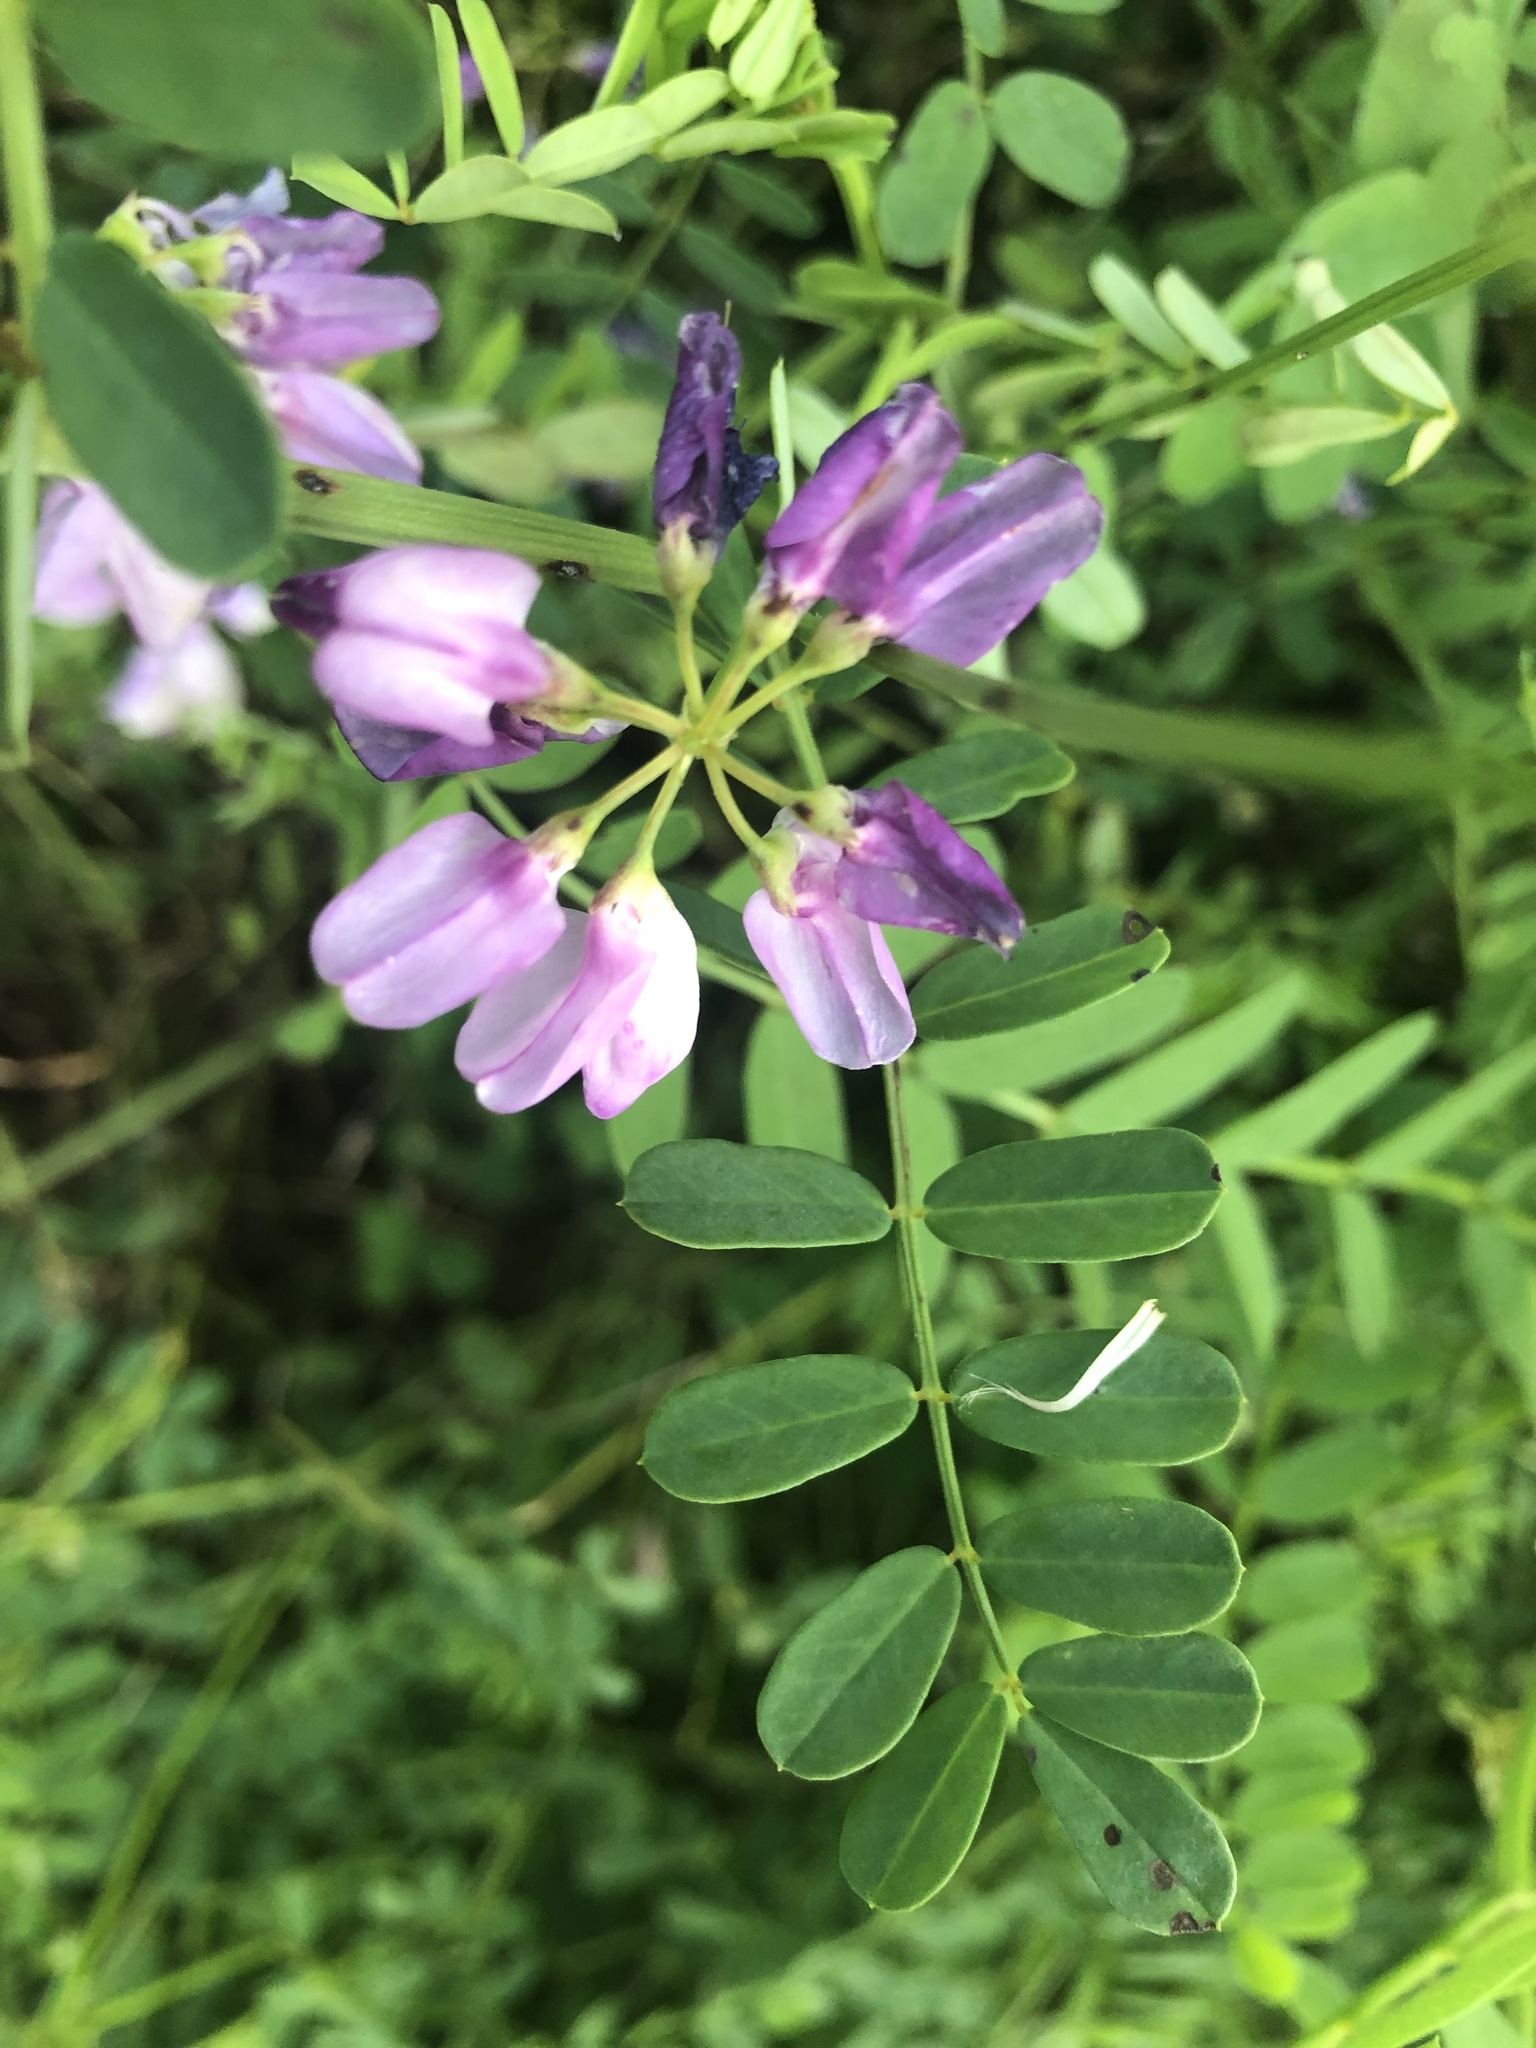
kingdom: Plantae
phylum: Tracheophyta
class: Magnoliopsida
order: Fabales
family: Fabaceae
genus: Coronilla
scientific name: Coronilla varia
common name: Crownvetch
